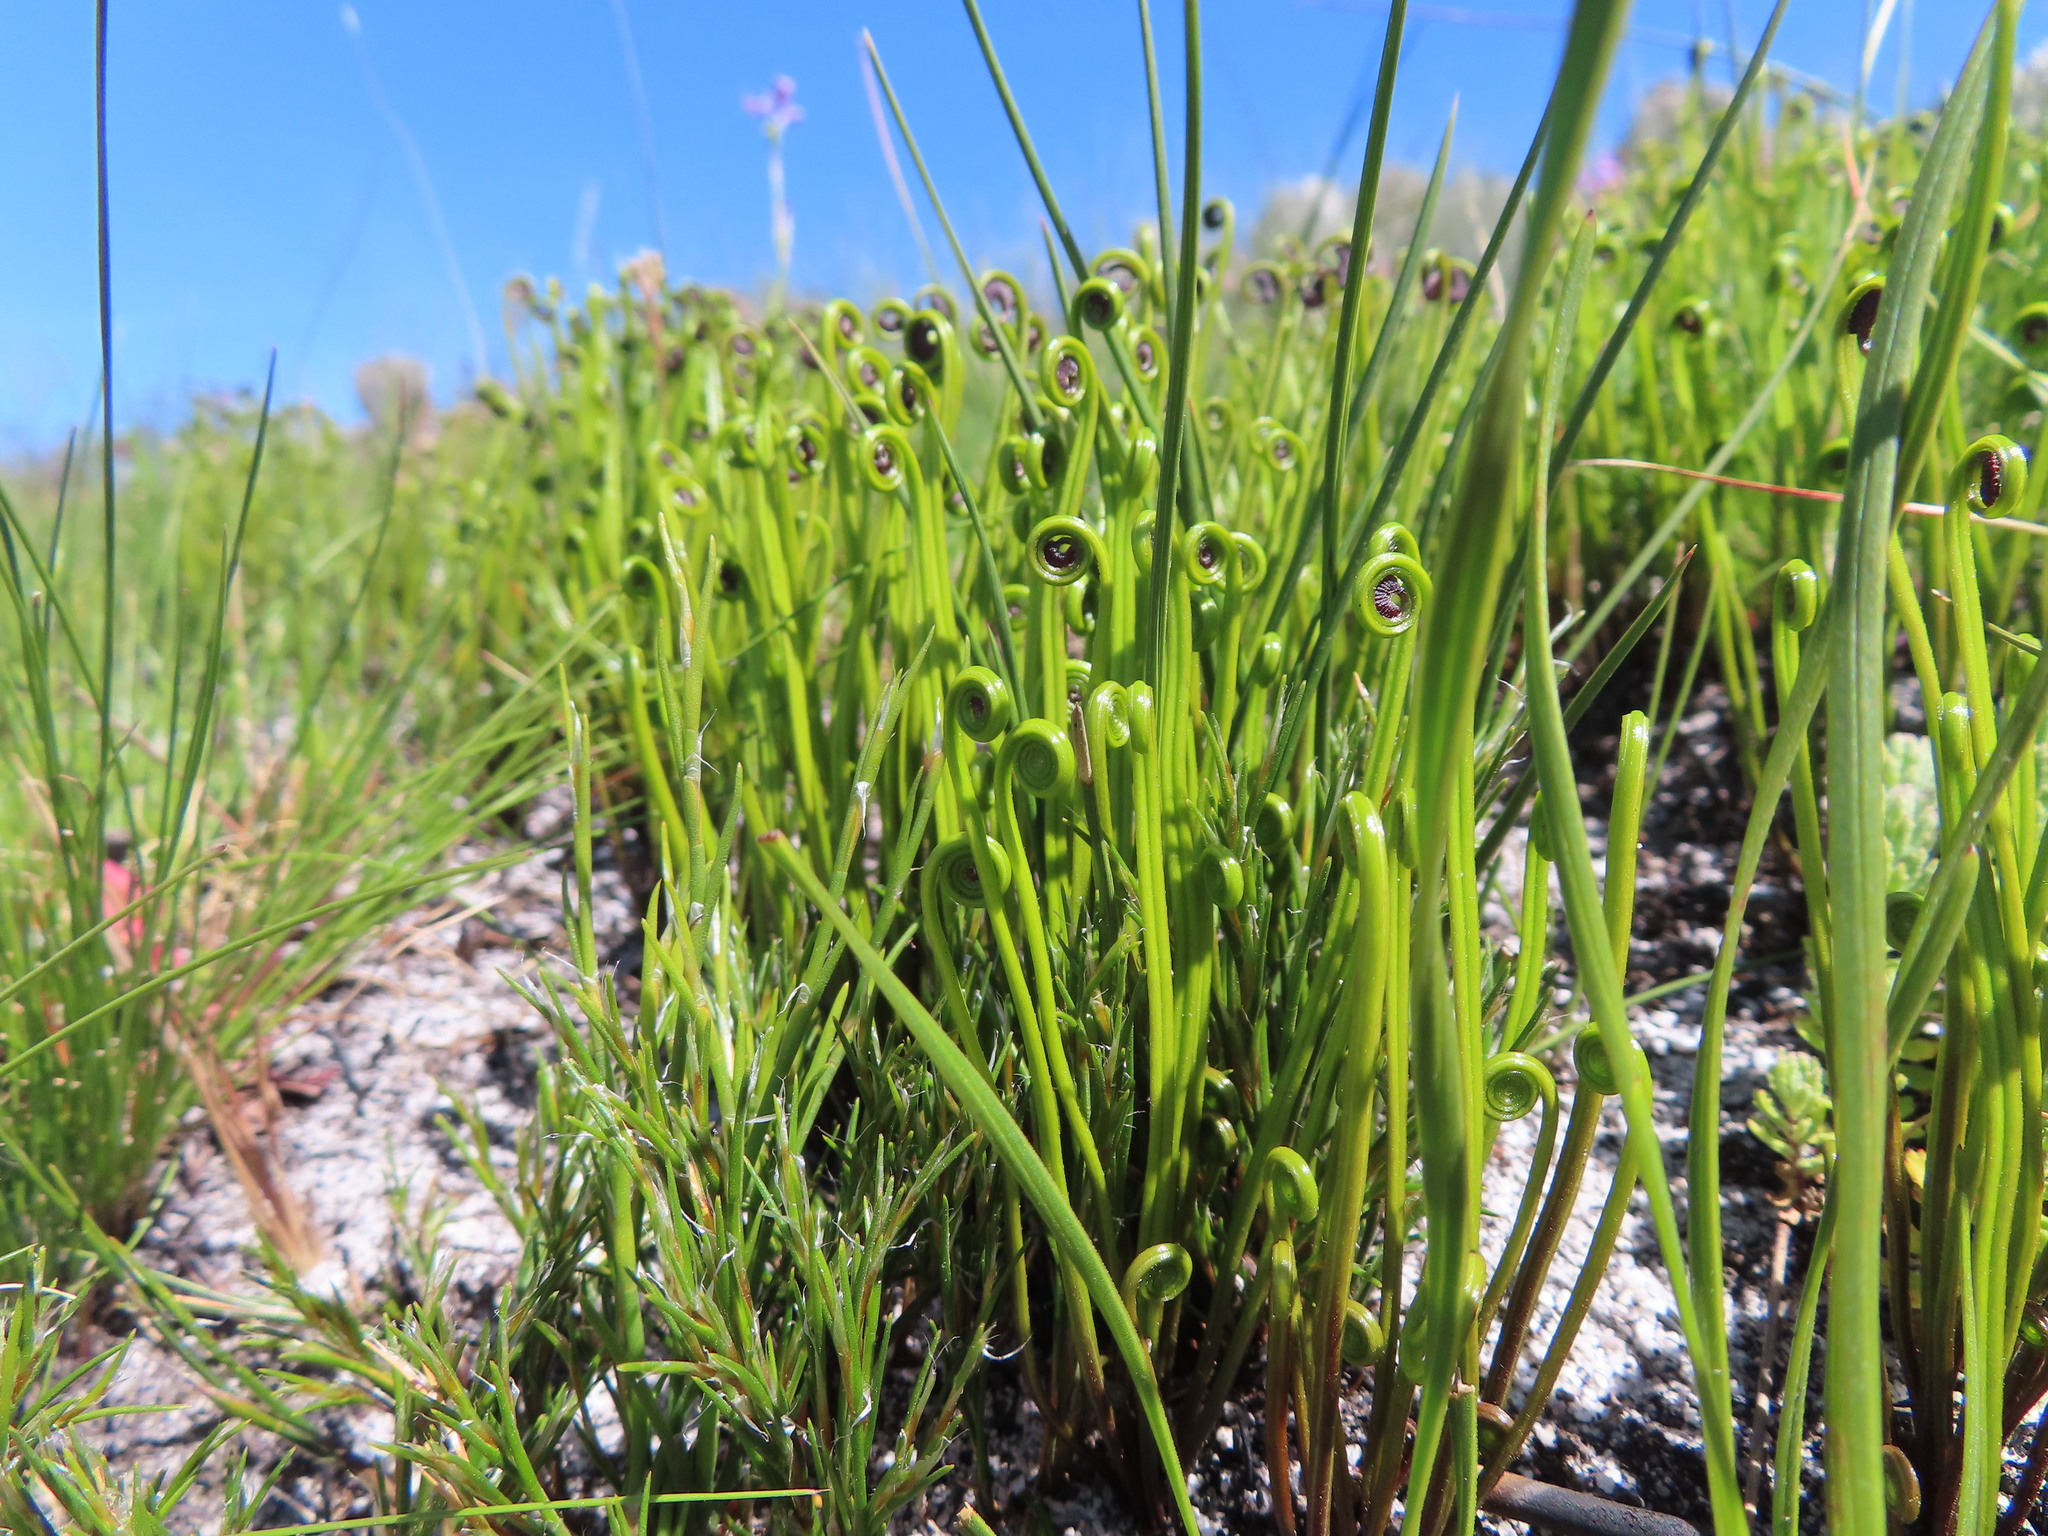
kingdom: Plantae
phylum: Tracheophyta
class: Polypodiopsida
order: Schizaeales
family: Schizaeaceae
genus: Schizaea
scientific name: Schizaea pectinata
